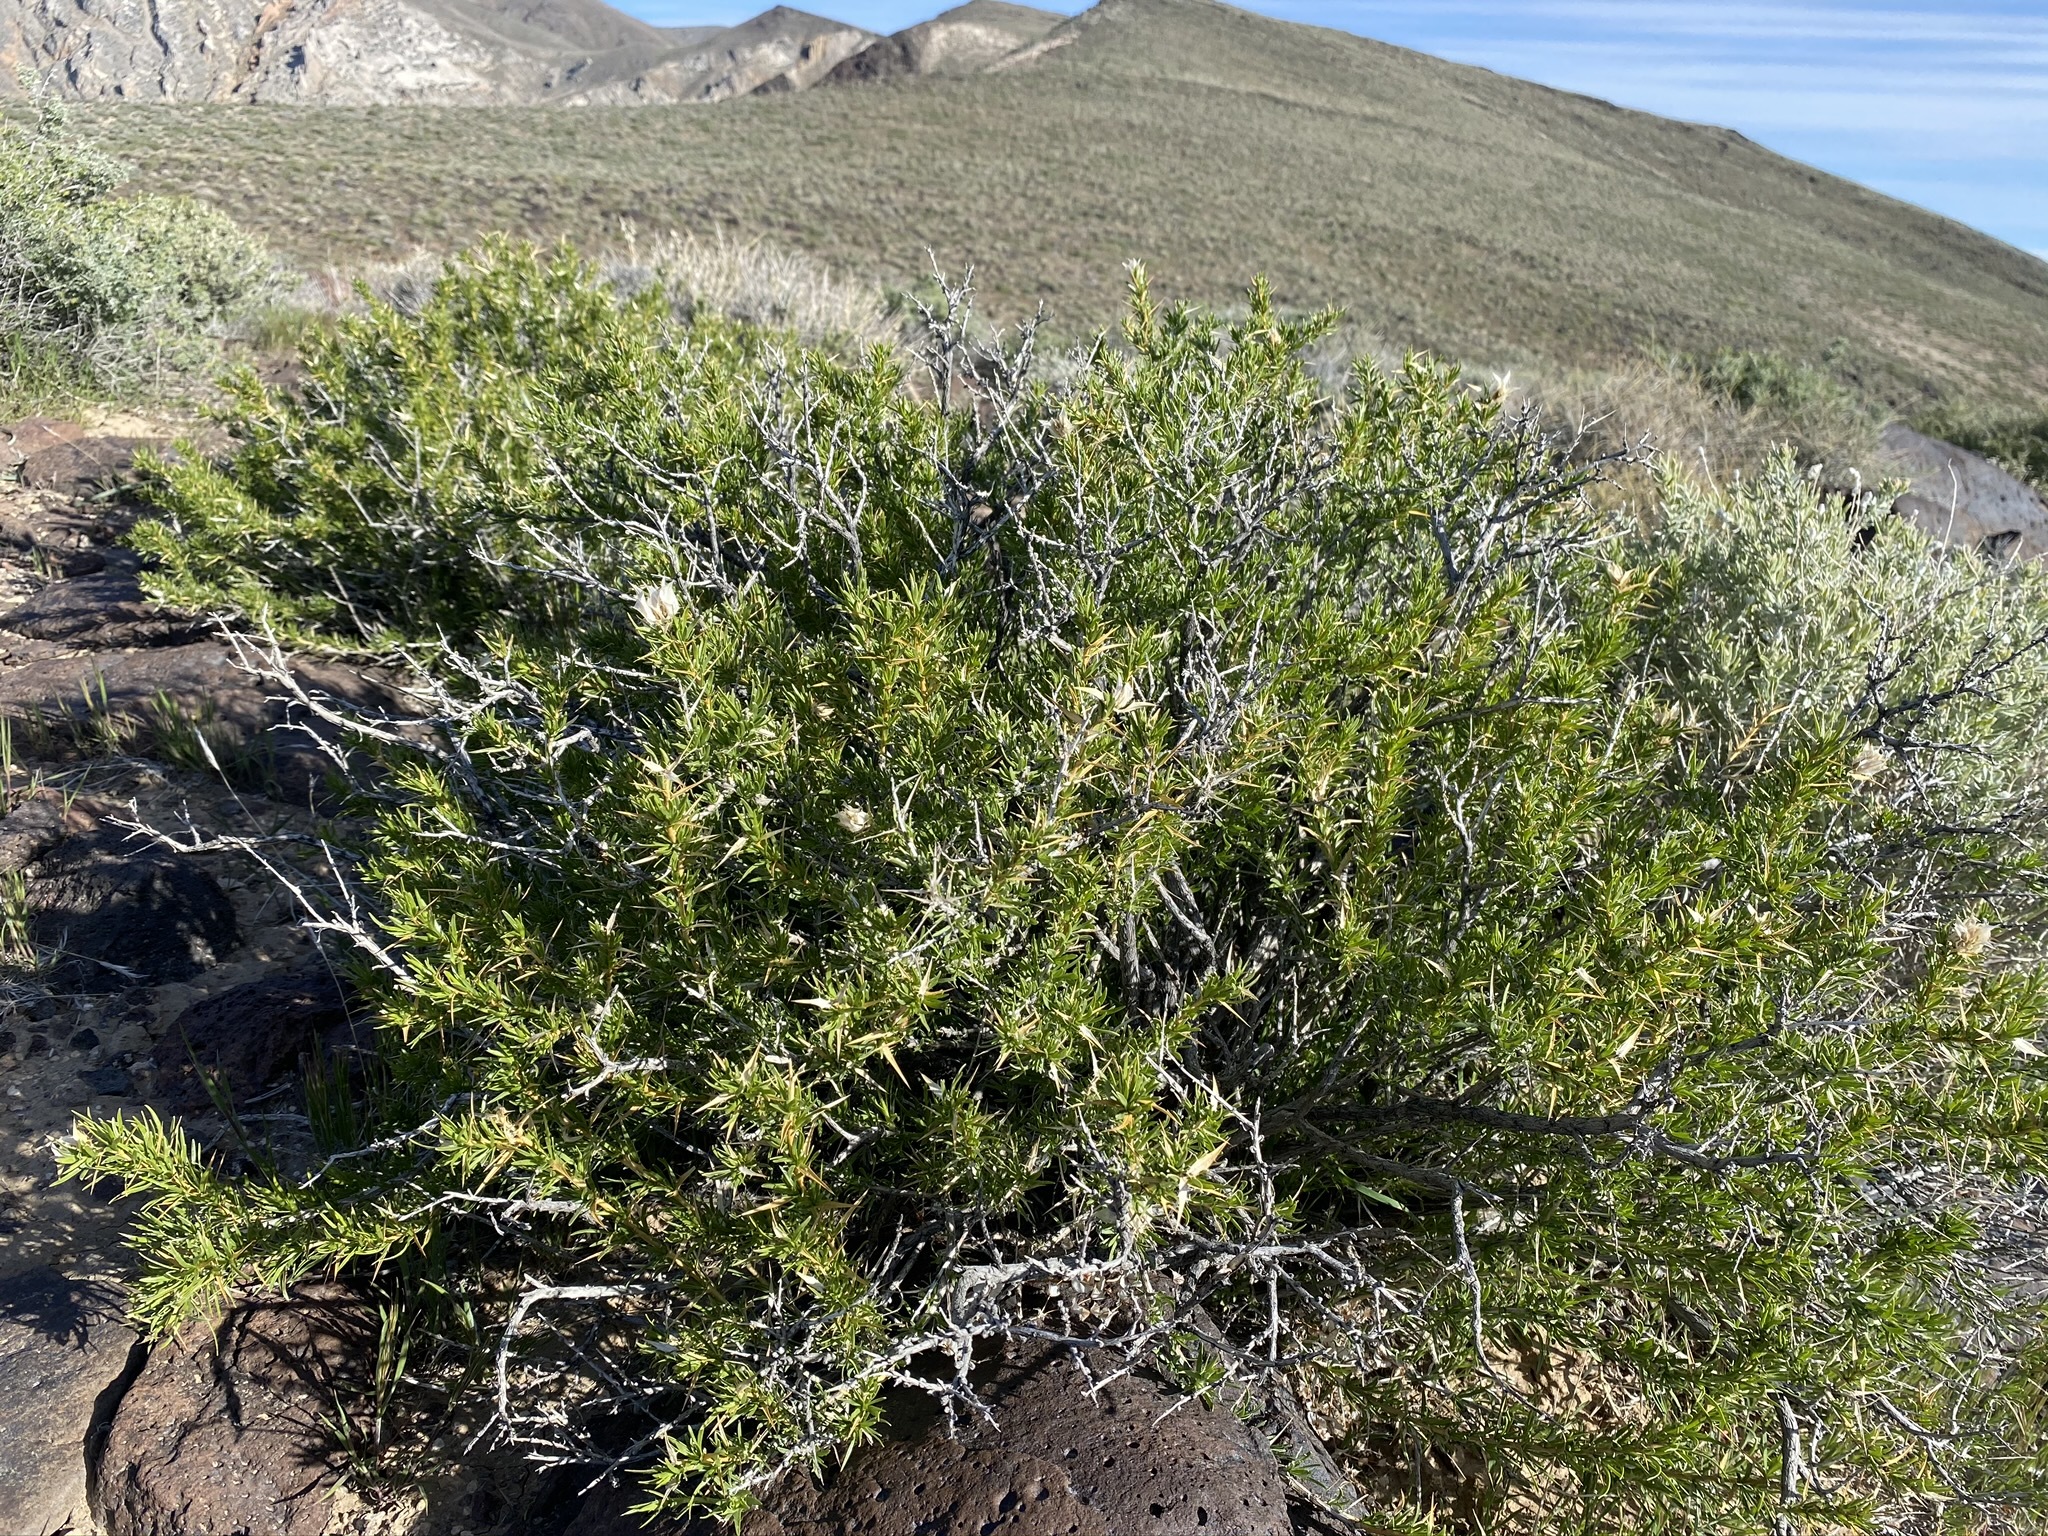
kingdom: Plantae
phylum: Tracheophyta
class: Magnoliopsida
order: Asterales
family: Asteraceae
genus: Hecastocleis
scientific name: Hecastocleis shockleyi
